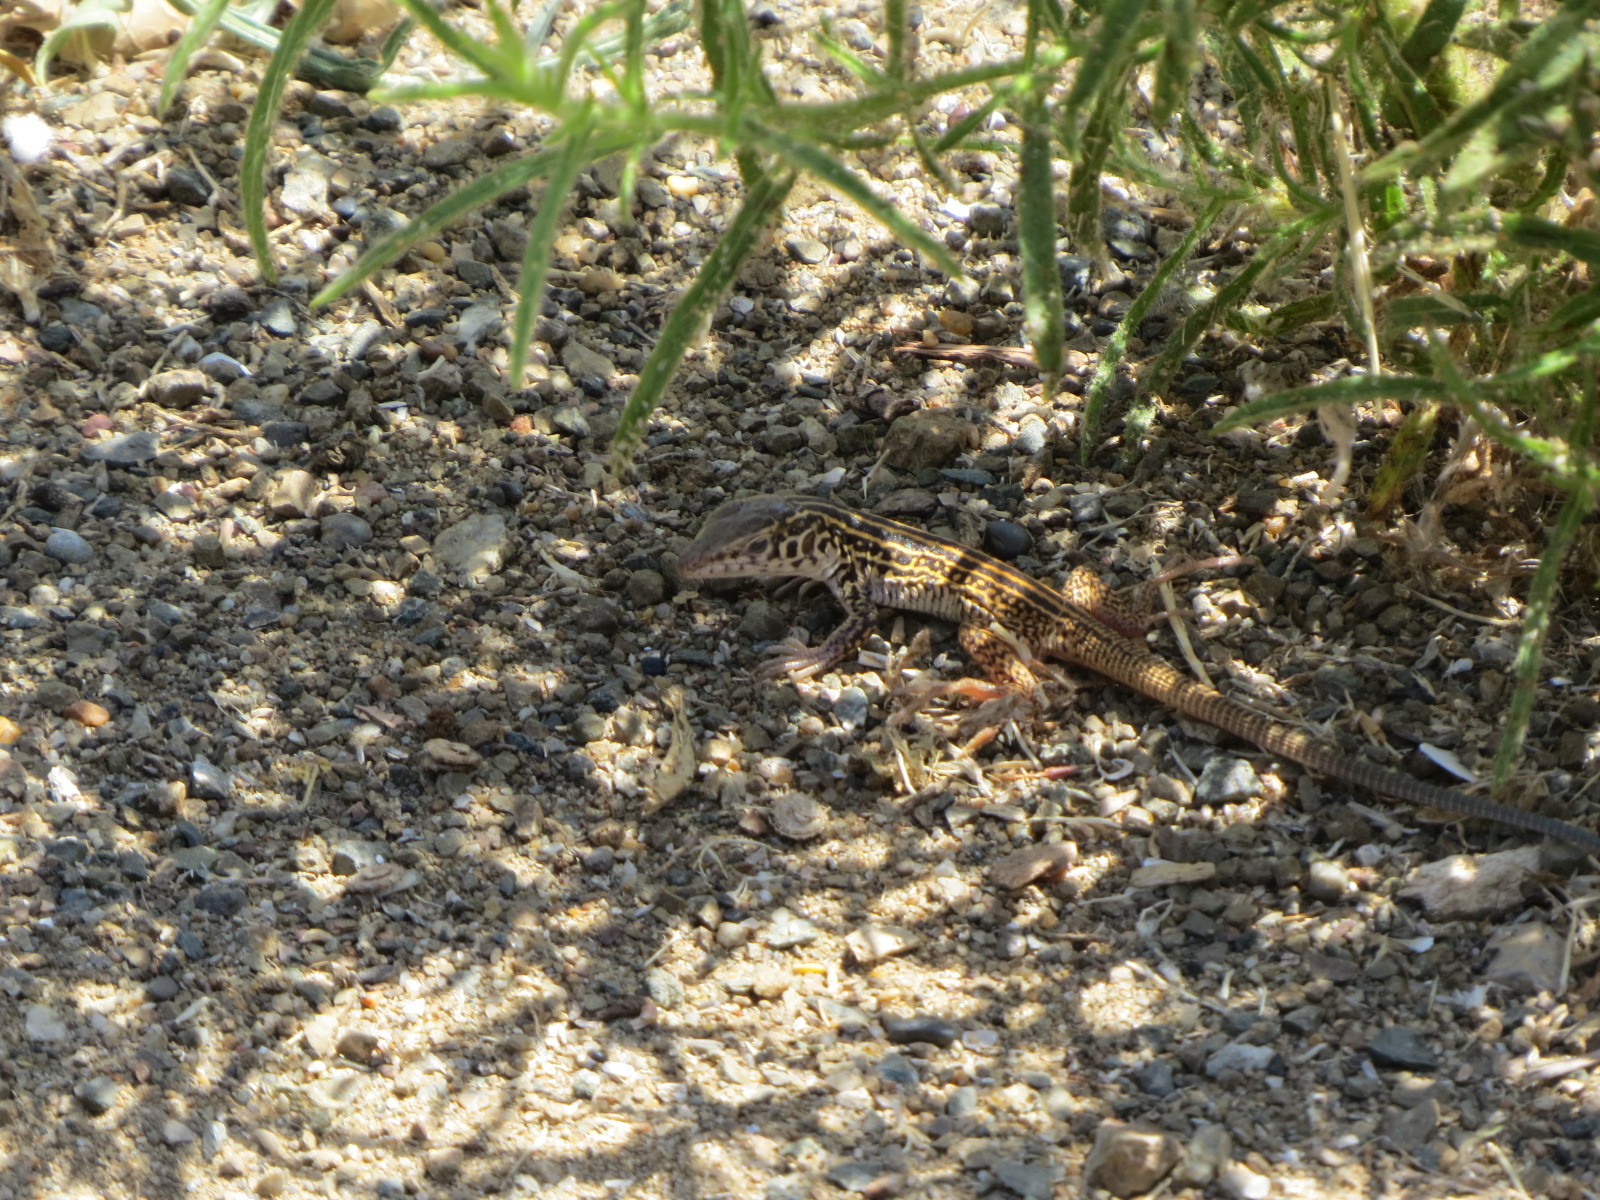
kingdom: Animalia
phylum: Chordata
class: Squamata
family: Teiidae
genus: Aspidoscelis
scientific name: Aspidoscelis tigris
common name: Tiger whiptail
